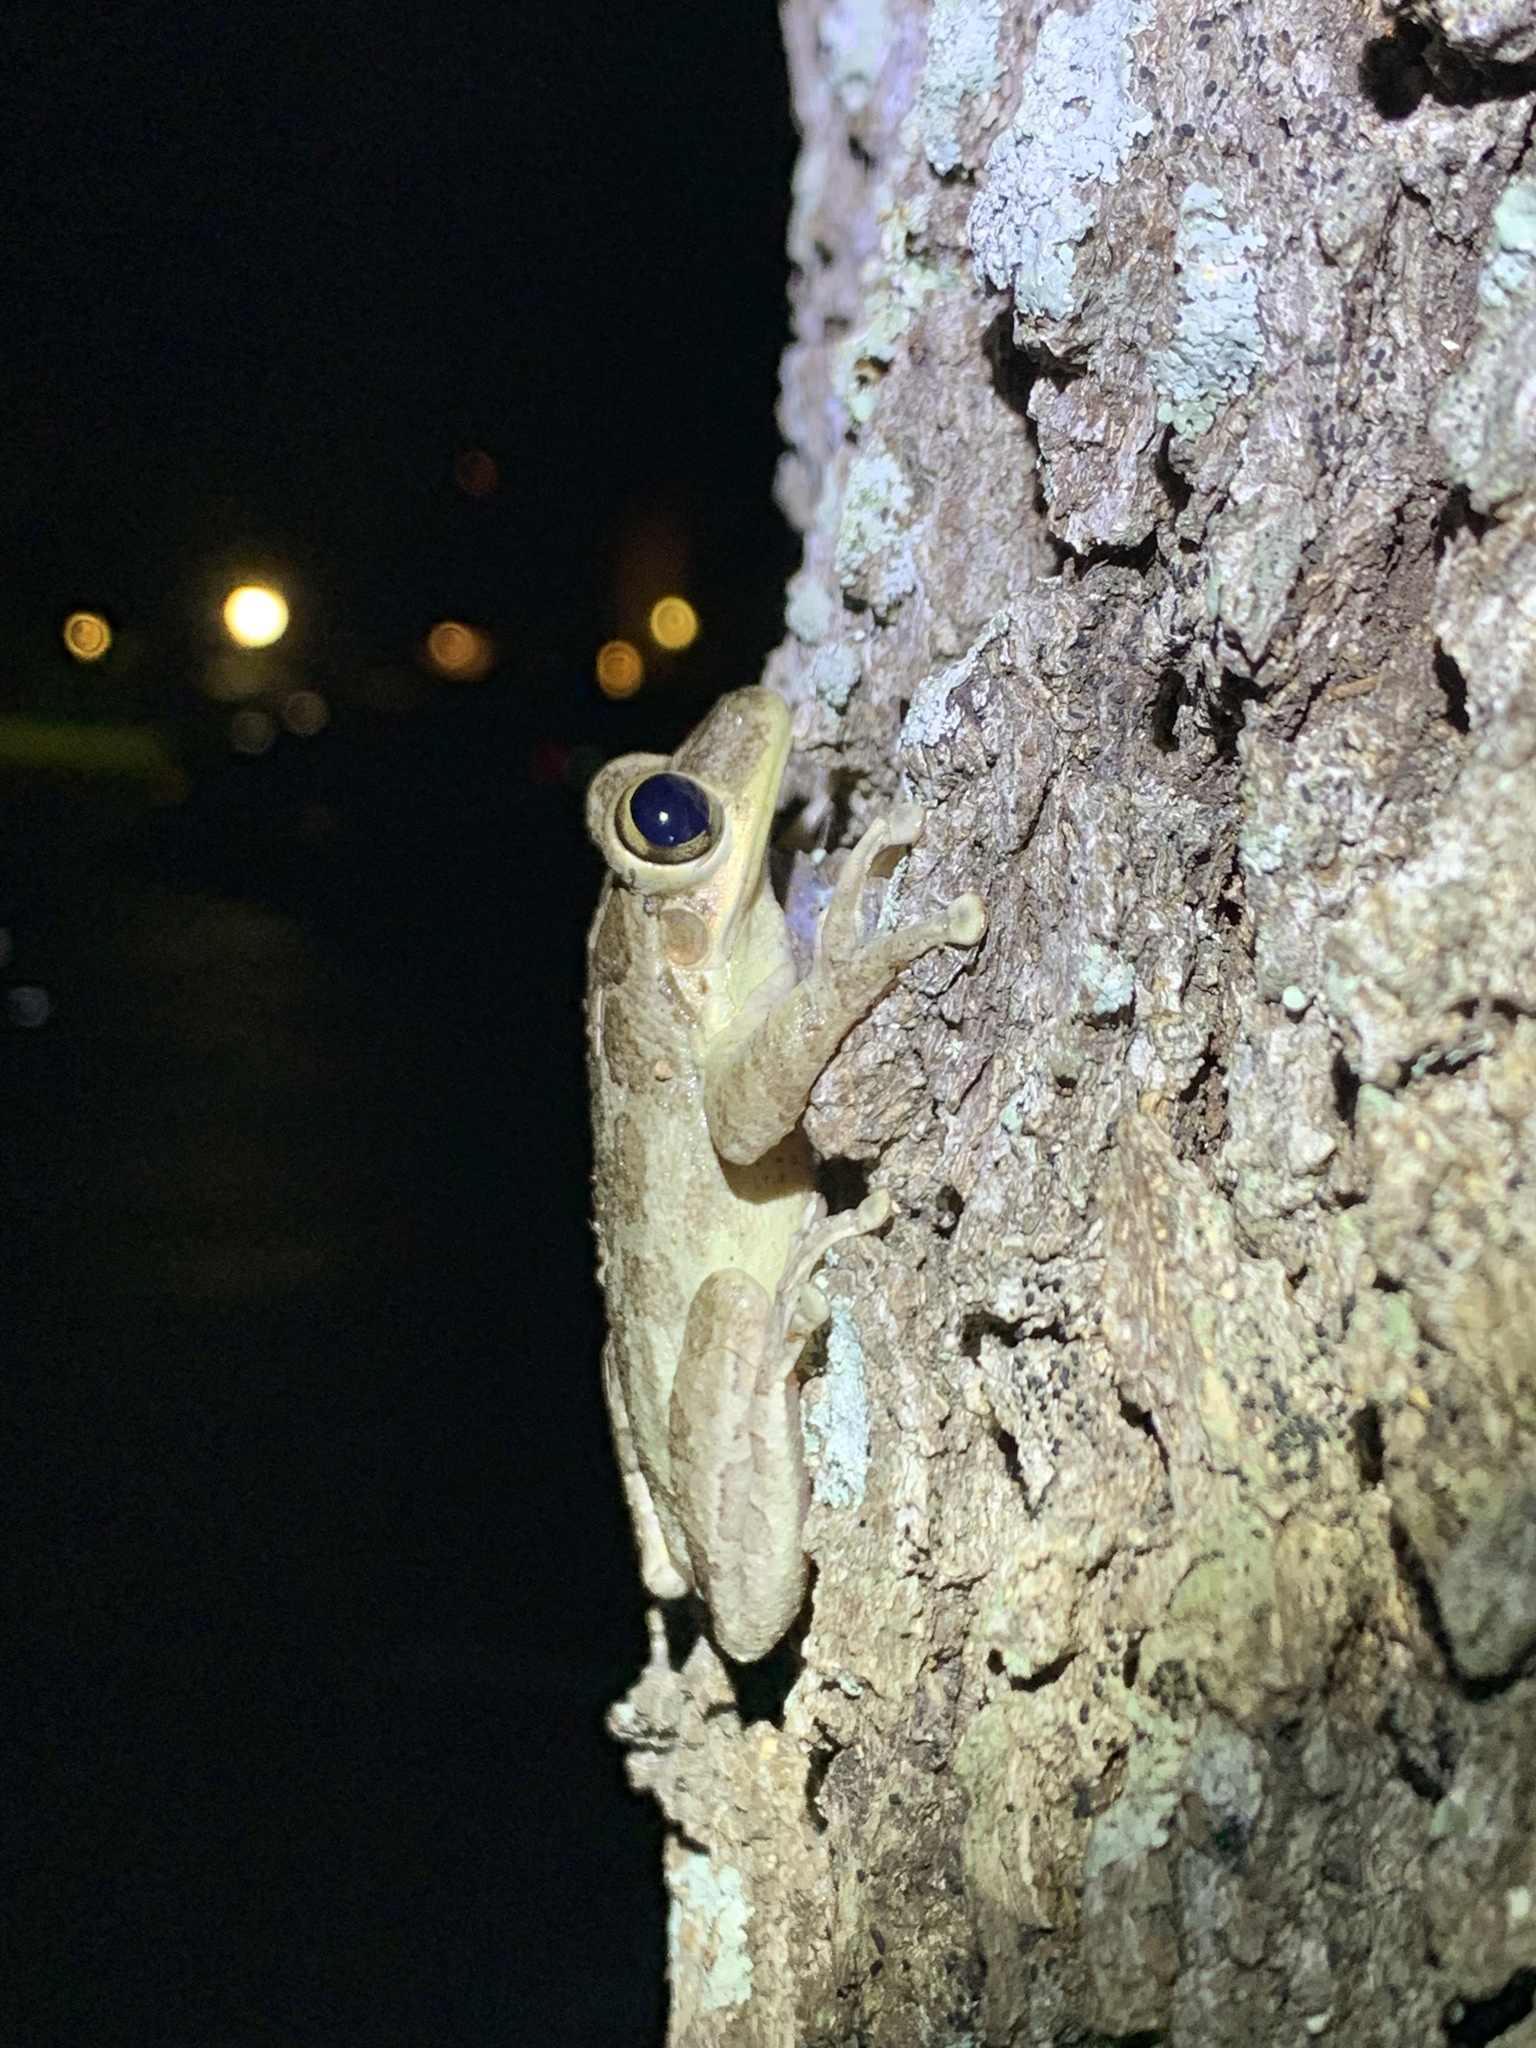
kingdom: Animalia
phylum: Chordata
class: Amphibia
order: Anura
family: Hylidae
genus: Osteopilus
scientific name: Osteopilus septentrionalis
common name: Cuban treefrog
